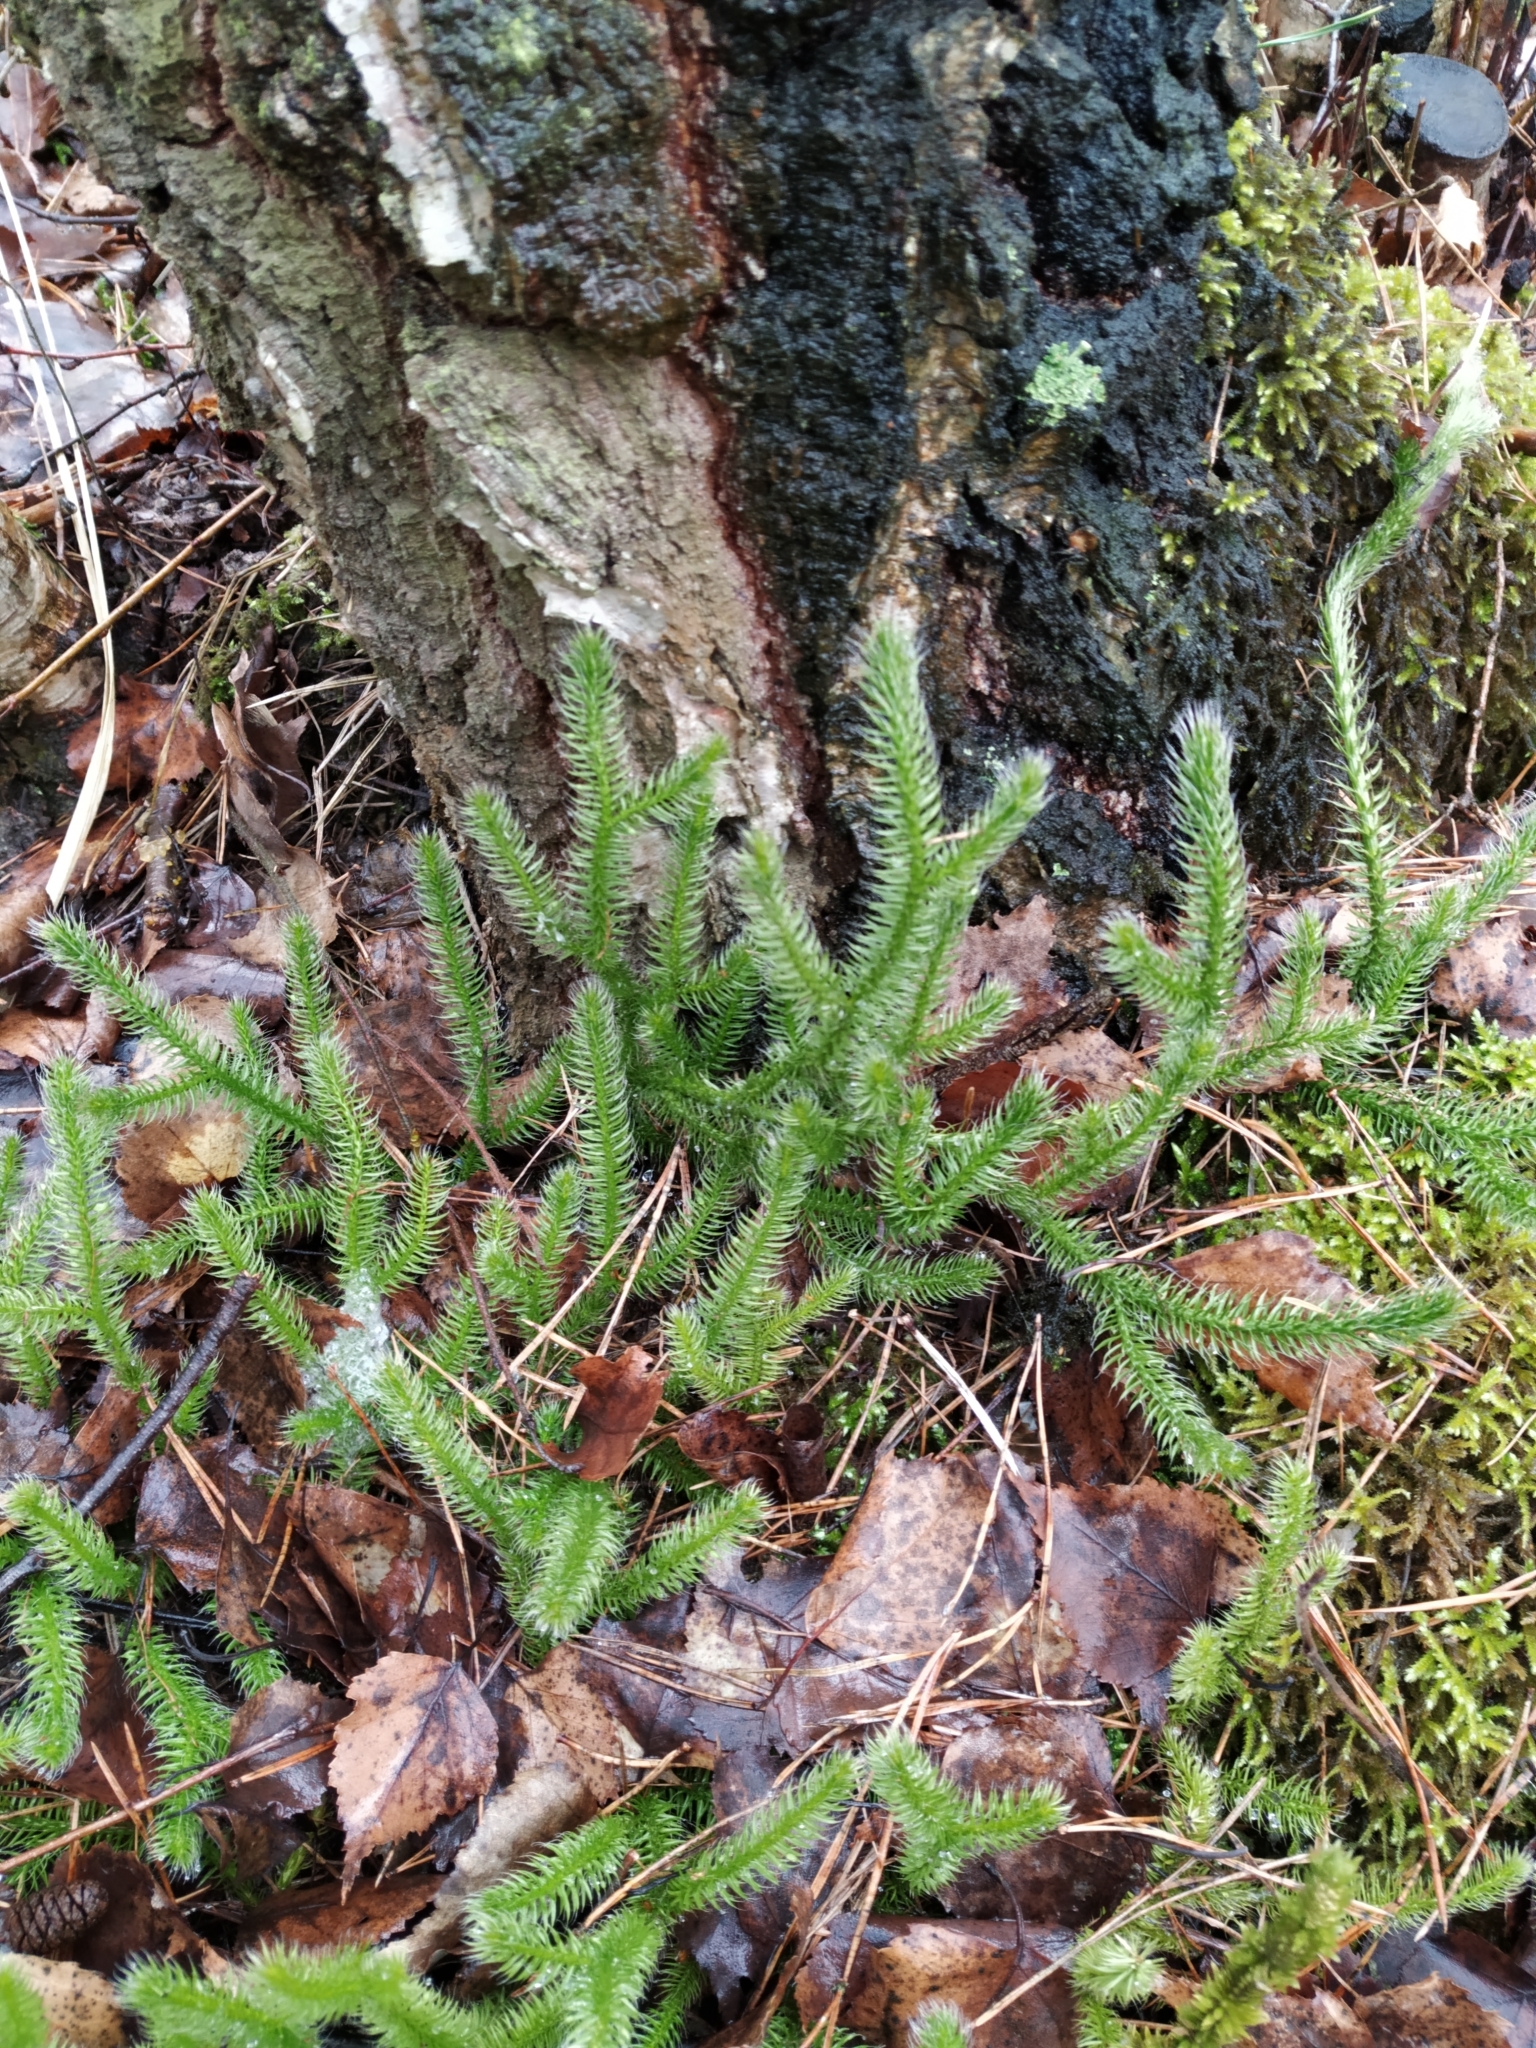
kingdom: Plantae
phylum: Tracheophyta
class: Lycopodiopsida
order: Lycopodiales
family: Lycopodiaceae
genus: Lycopodium
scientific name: Lycopodium clavatum
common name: Stag's-horn clubmoss
